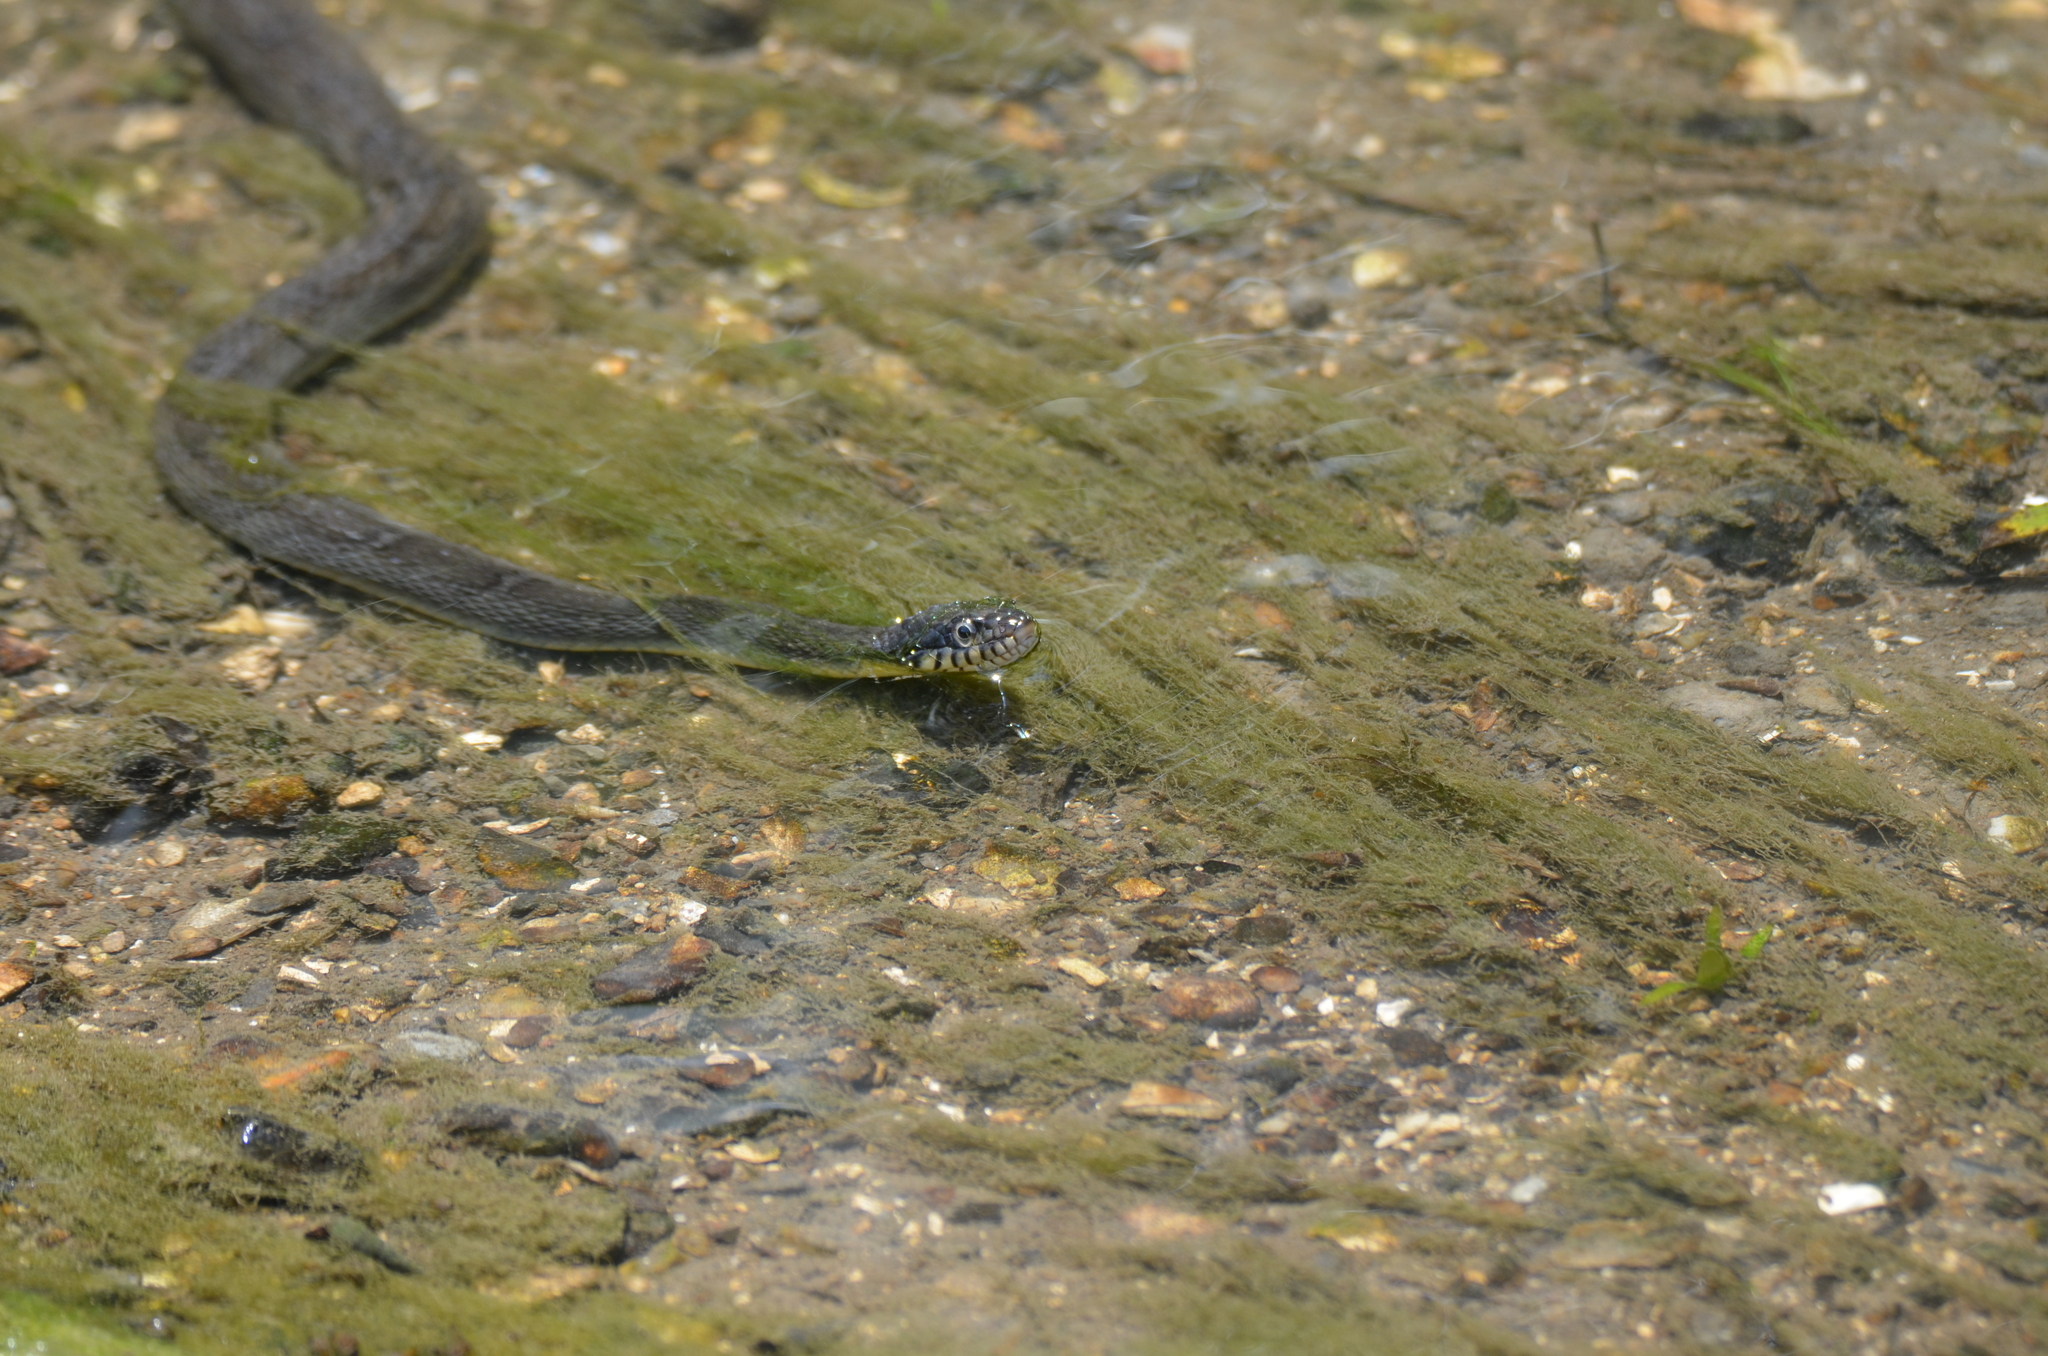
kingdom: Animalia
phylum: Chordata
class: Squamata
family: Colubridae
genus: Nerodia
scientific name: Nerodia erythrogaster
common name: Plainbelly water snake
